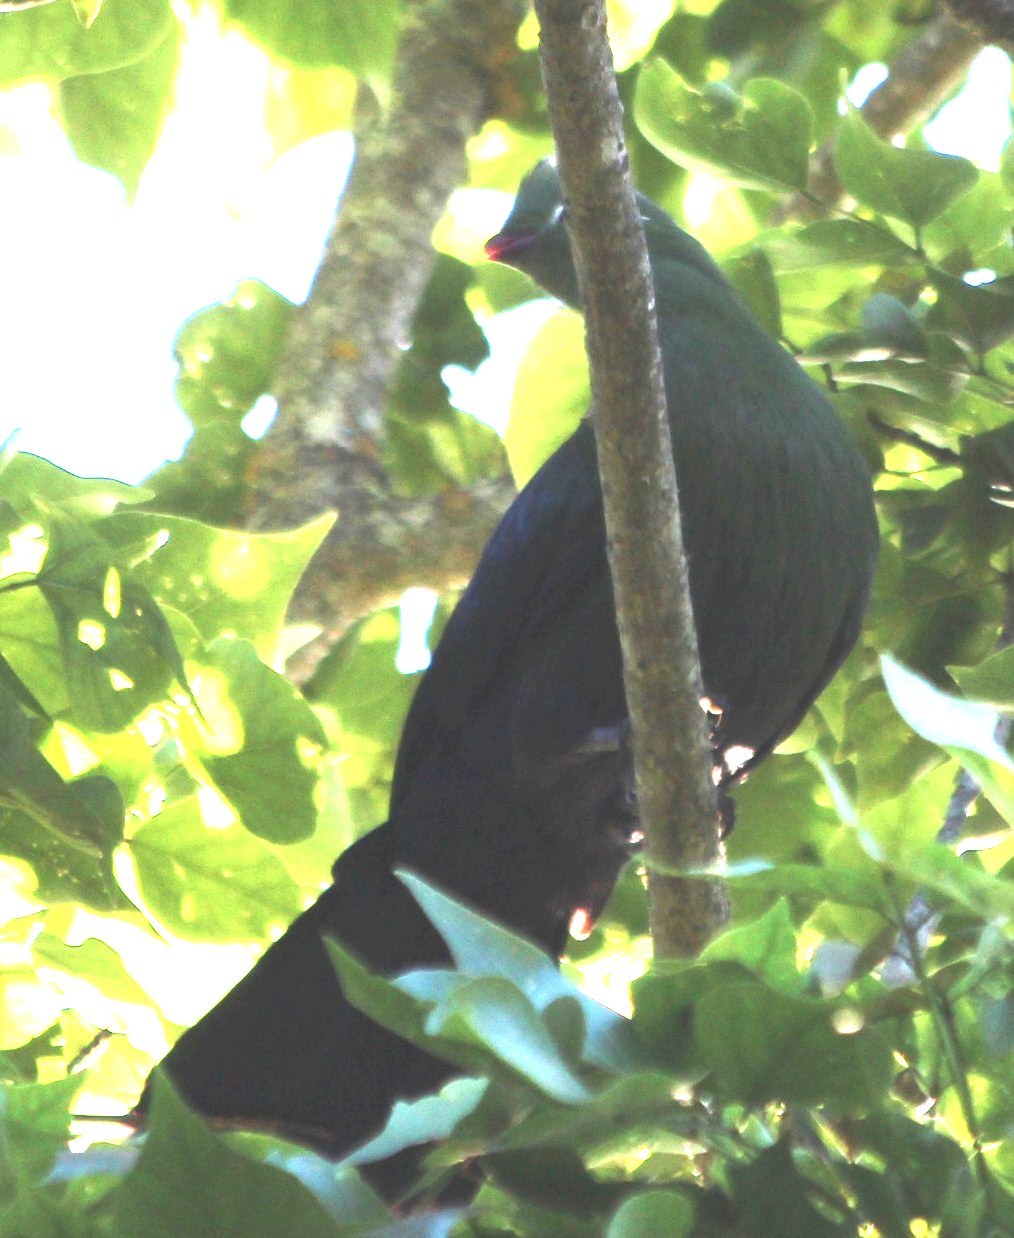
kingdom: Animalia
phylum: Chordata
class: Aves
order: Musophagiformes
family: Musophagidae
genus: Tauraco
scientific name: Tauraco corythaix
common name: Knysna turaco
